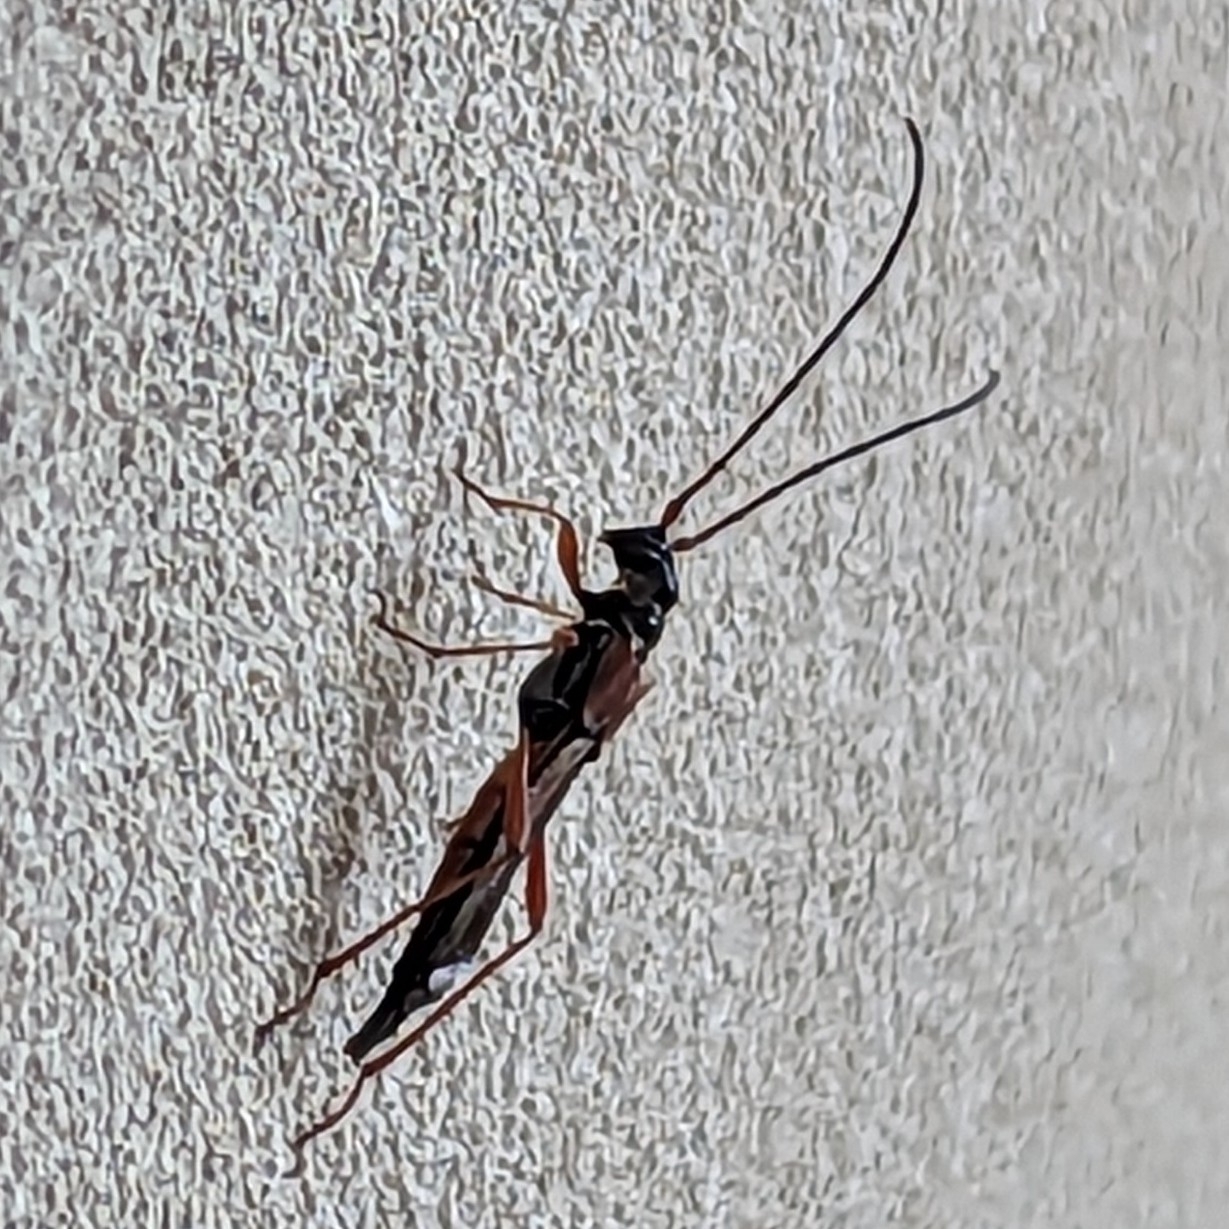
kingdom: Animalia
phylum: Arthropoda
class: Insecta
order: Coleoptera
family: Cerambycidae
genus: Necydalis
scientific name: Necydalis mellita
